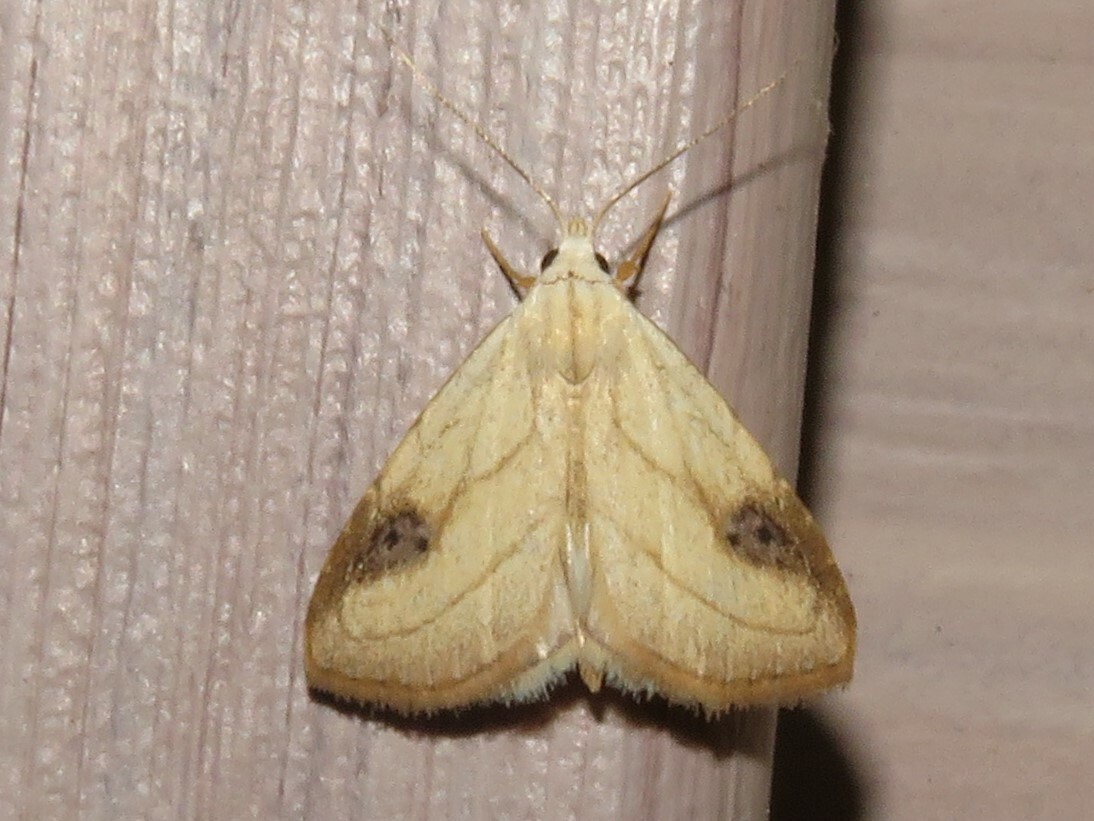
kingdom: Animalia
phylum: Arthropoda
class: Insecta
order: Lepidoptera
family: Erebidae
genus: Rivula
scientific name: Rivula propinqualis
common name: Spotted grass moth
